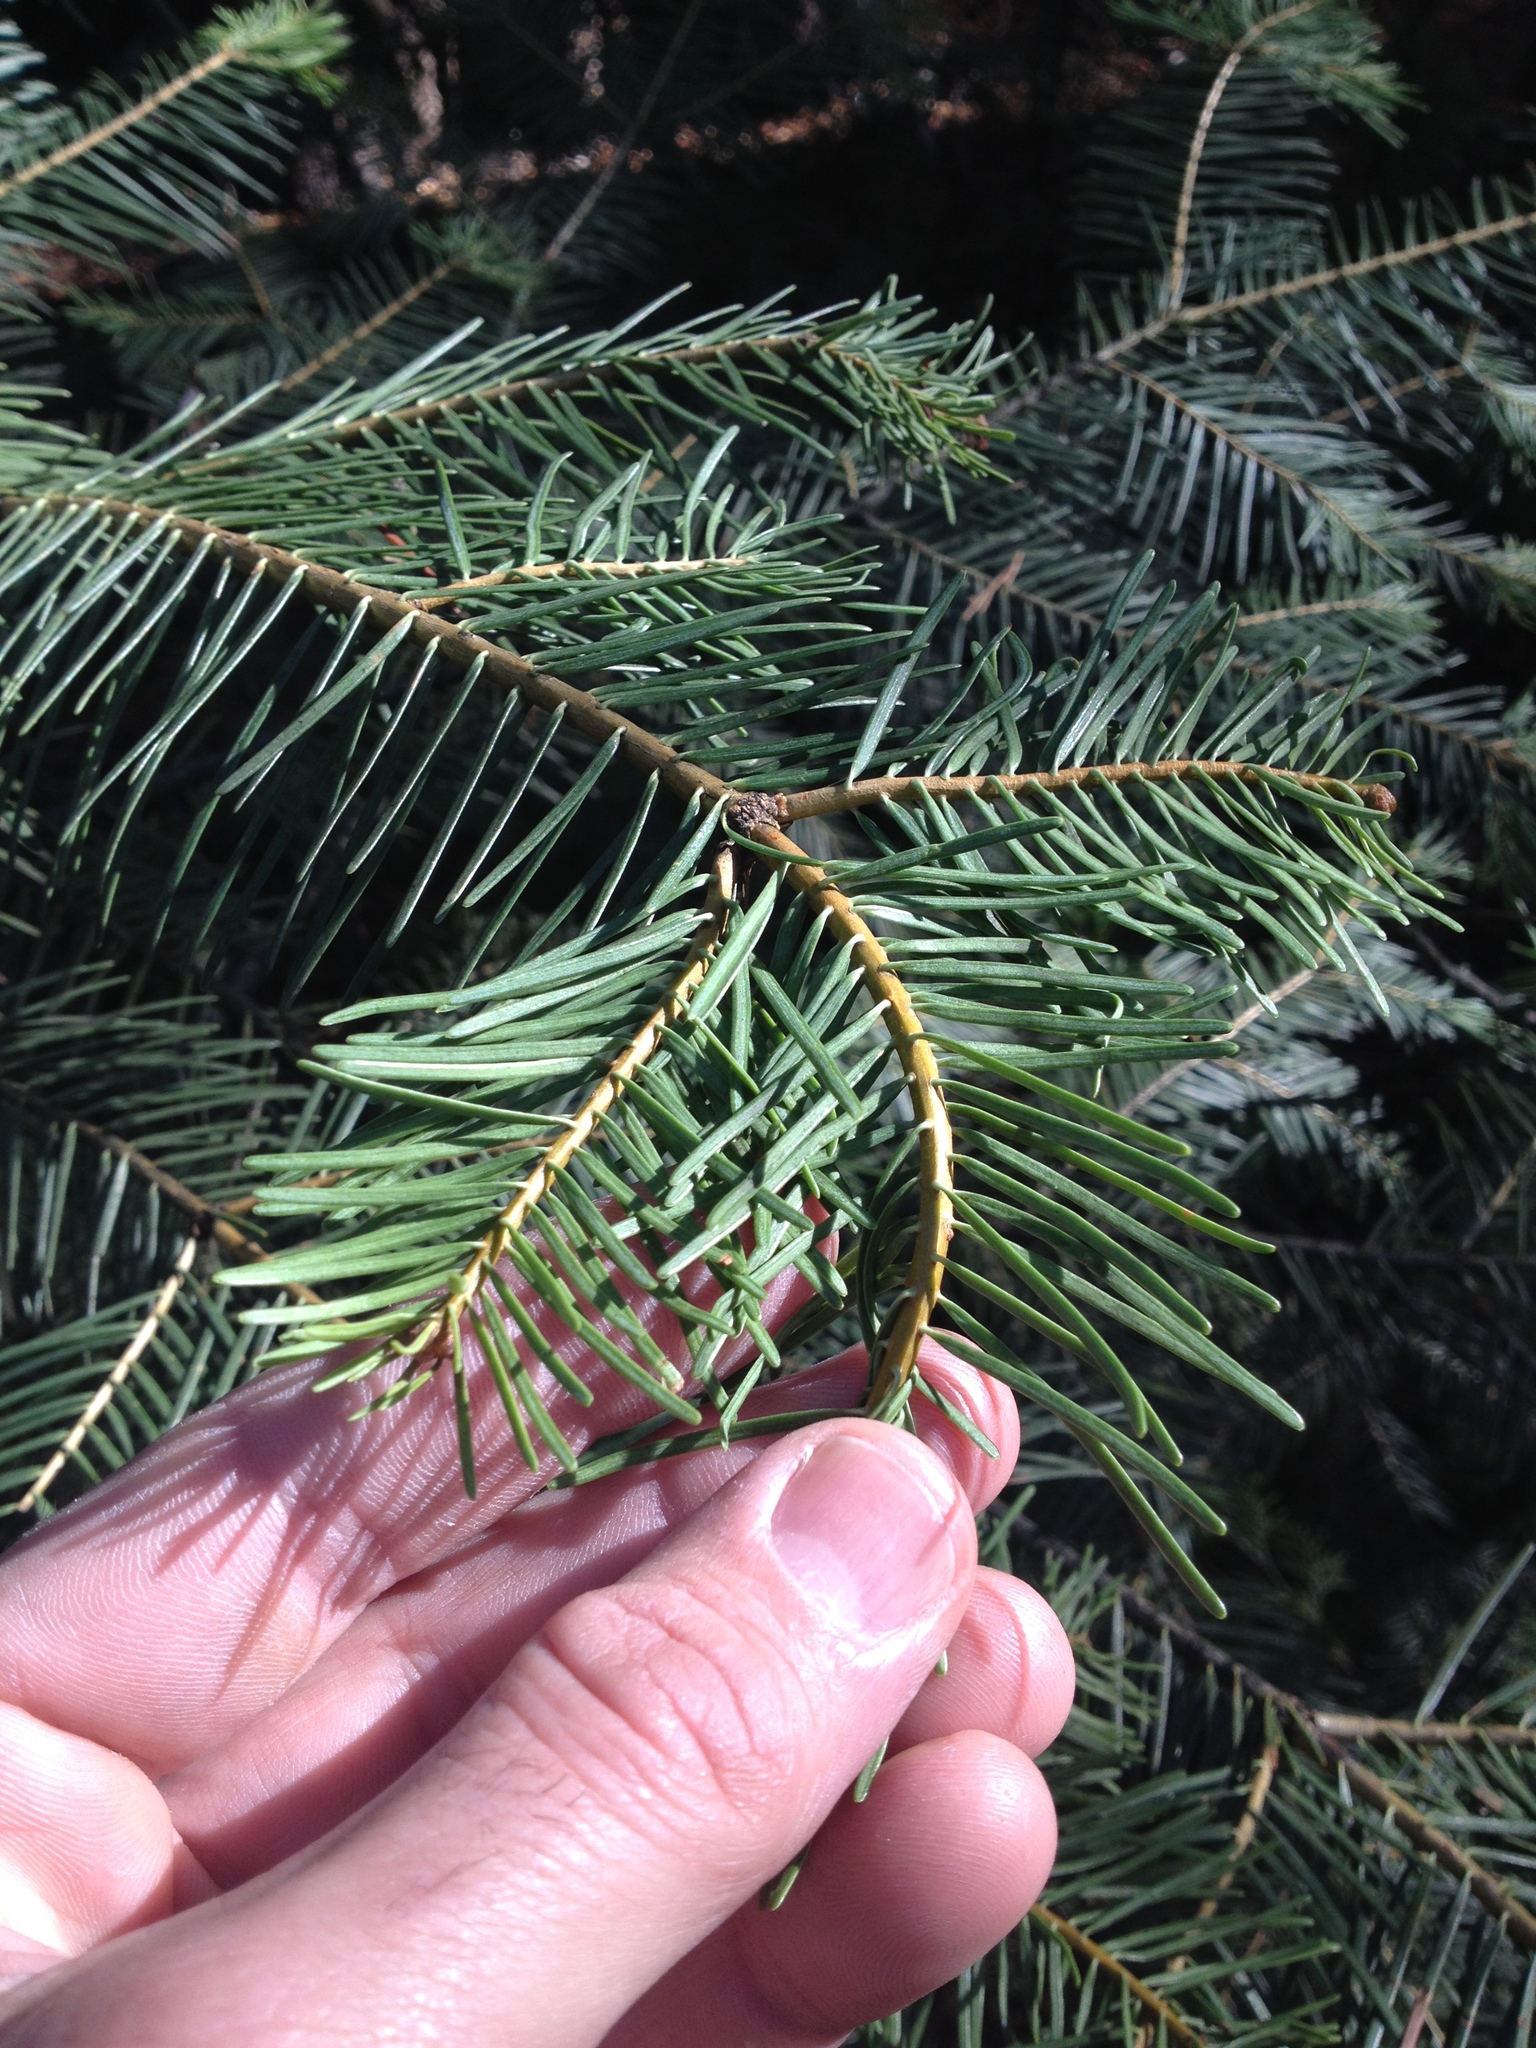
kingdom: Plantae
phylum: Tracheophyta
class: Pinopsida
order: Pinales
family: Pinaceae
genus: Abies
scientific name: Abies concolor
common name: Colorado fir
